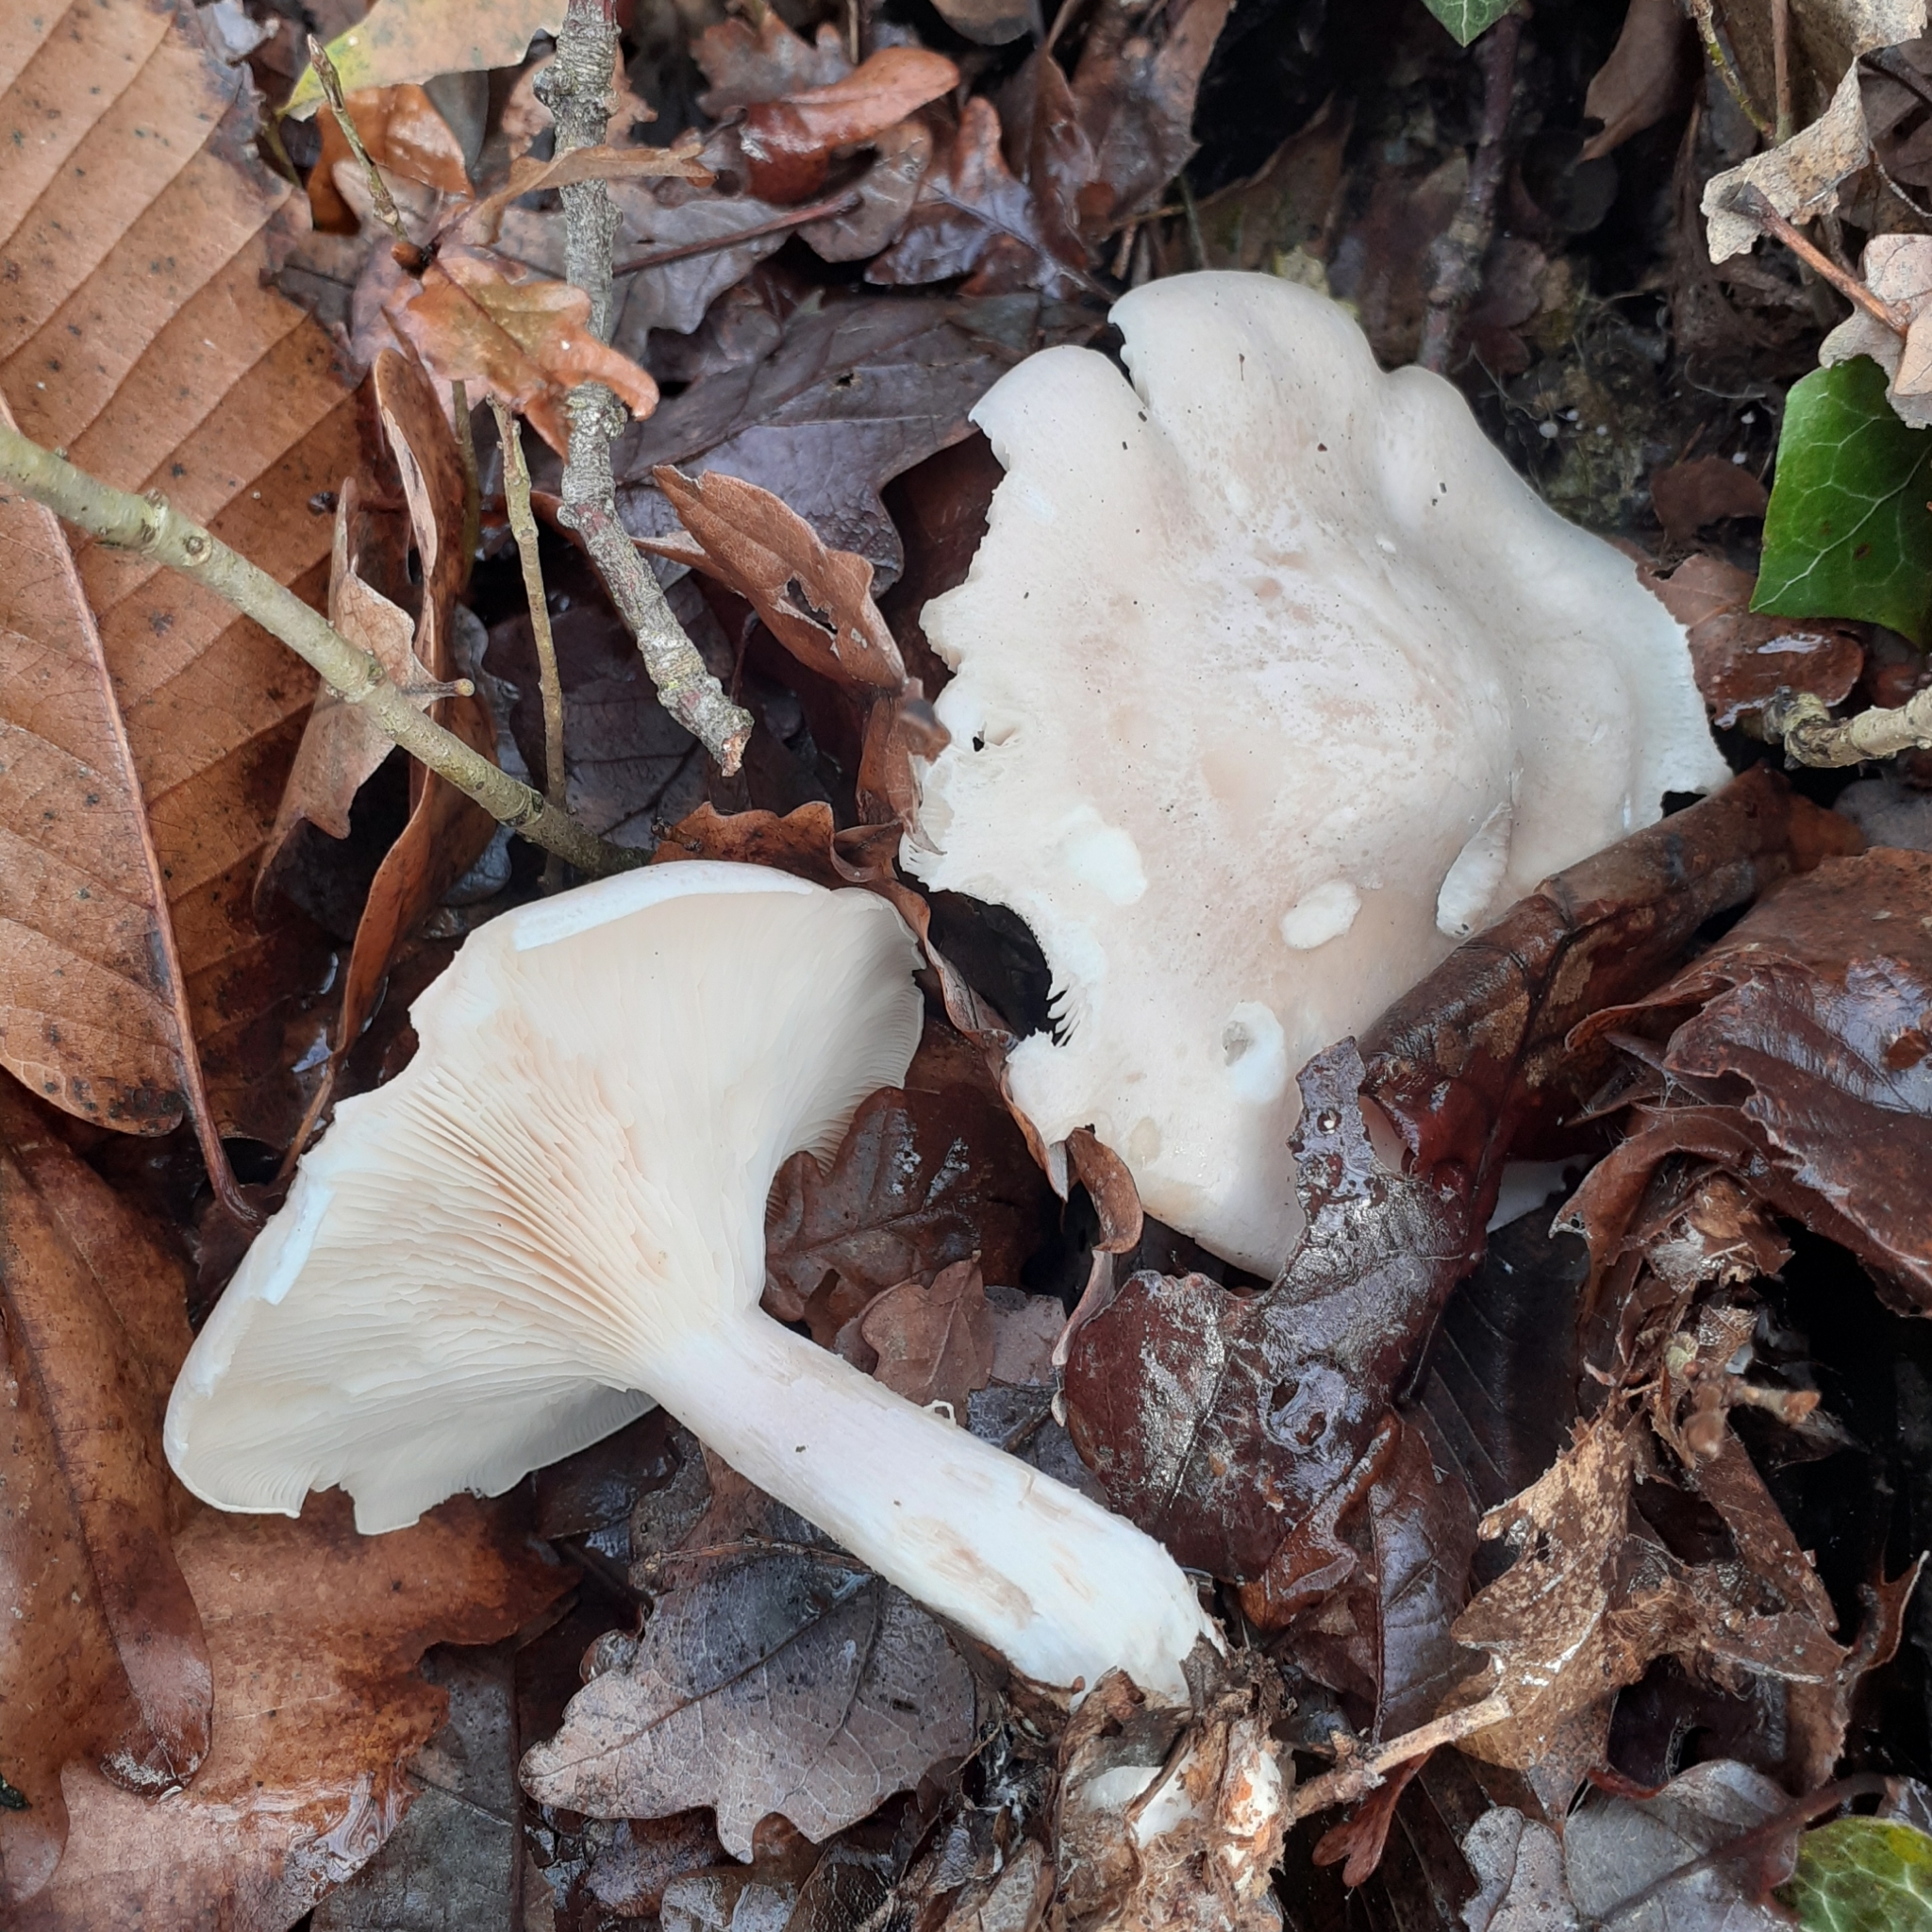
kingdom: Fungi
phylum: Basidiomycota
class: Agaricomycetes
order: Agaricales
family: Tricholomataceae
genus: Clitocybe
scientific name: Clitocybe nebularis
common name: Clouded agaric
